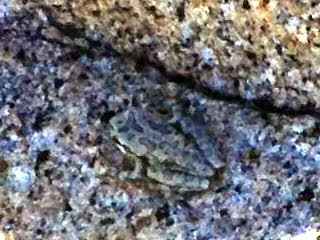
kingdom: Animalia
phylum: Chordata
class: Amphibia
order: Anura
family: Hylidae
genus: Pseudacris
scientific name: Pseudacris regilla
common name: Pacific chorus frog
